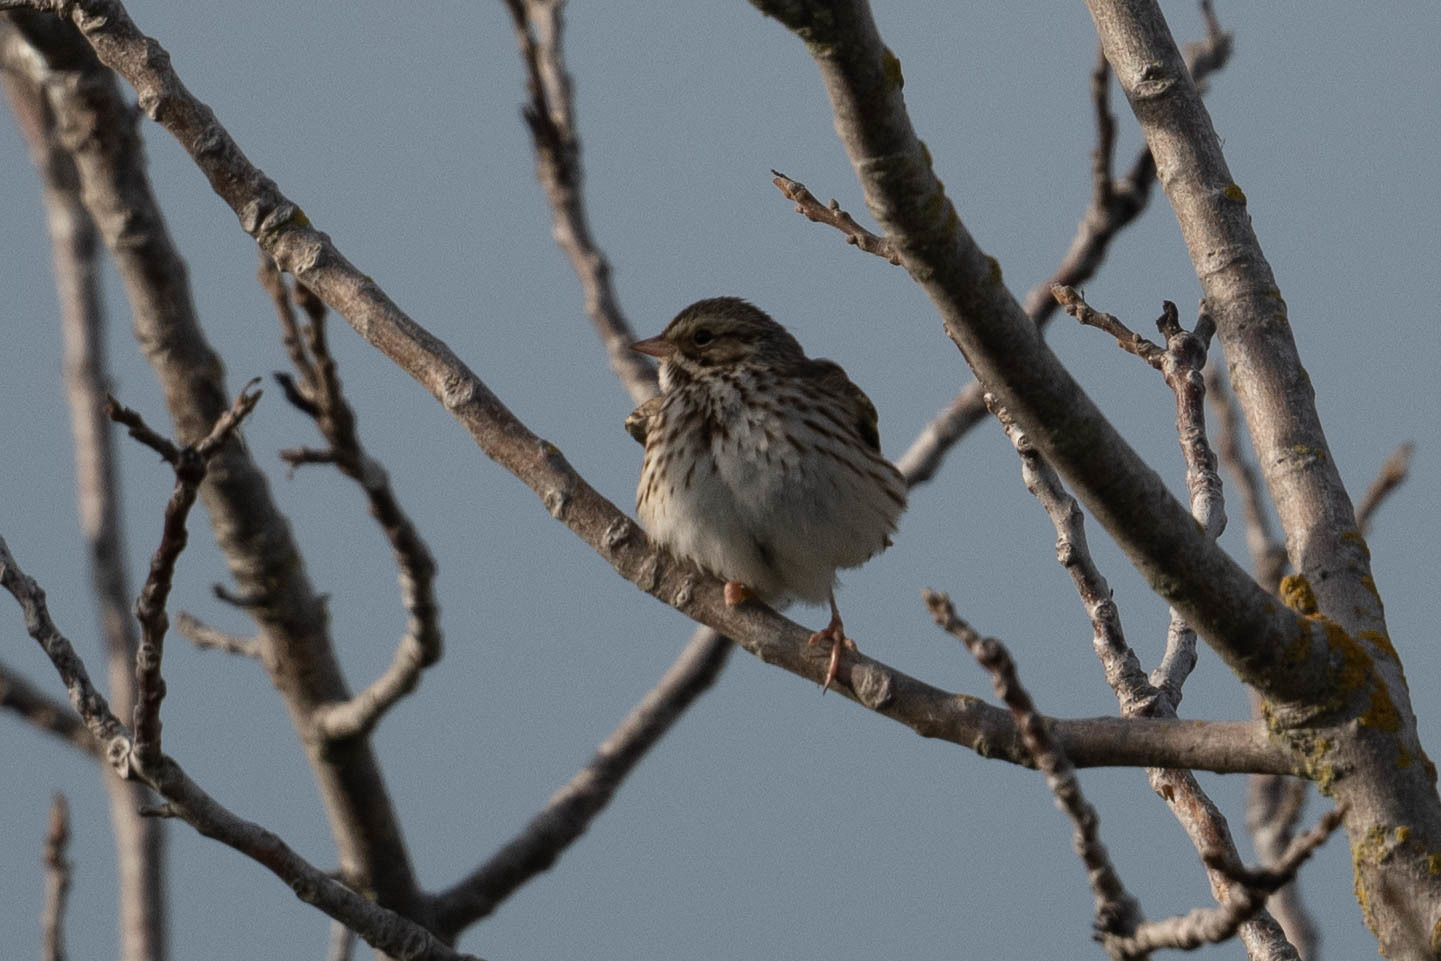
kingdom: Animalia
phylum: Chordata
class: Aves
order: Passeriformes
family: Passerellidae
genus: Passerculus
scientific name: Passerculus sandwichensis
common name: Savannah sparrow
